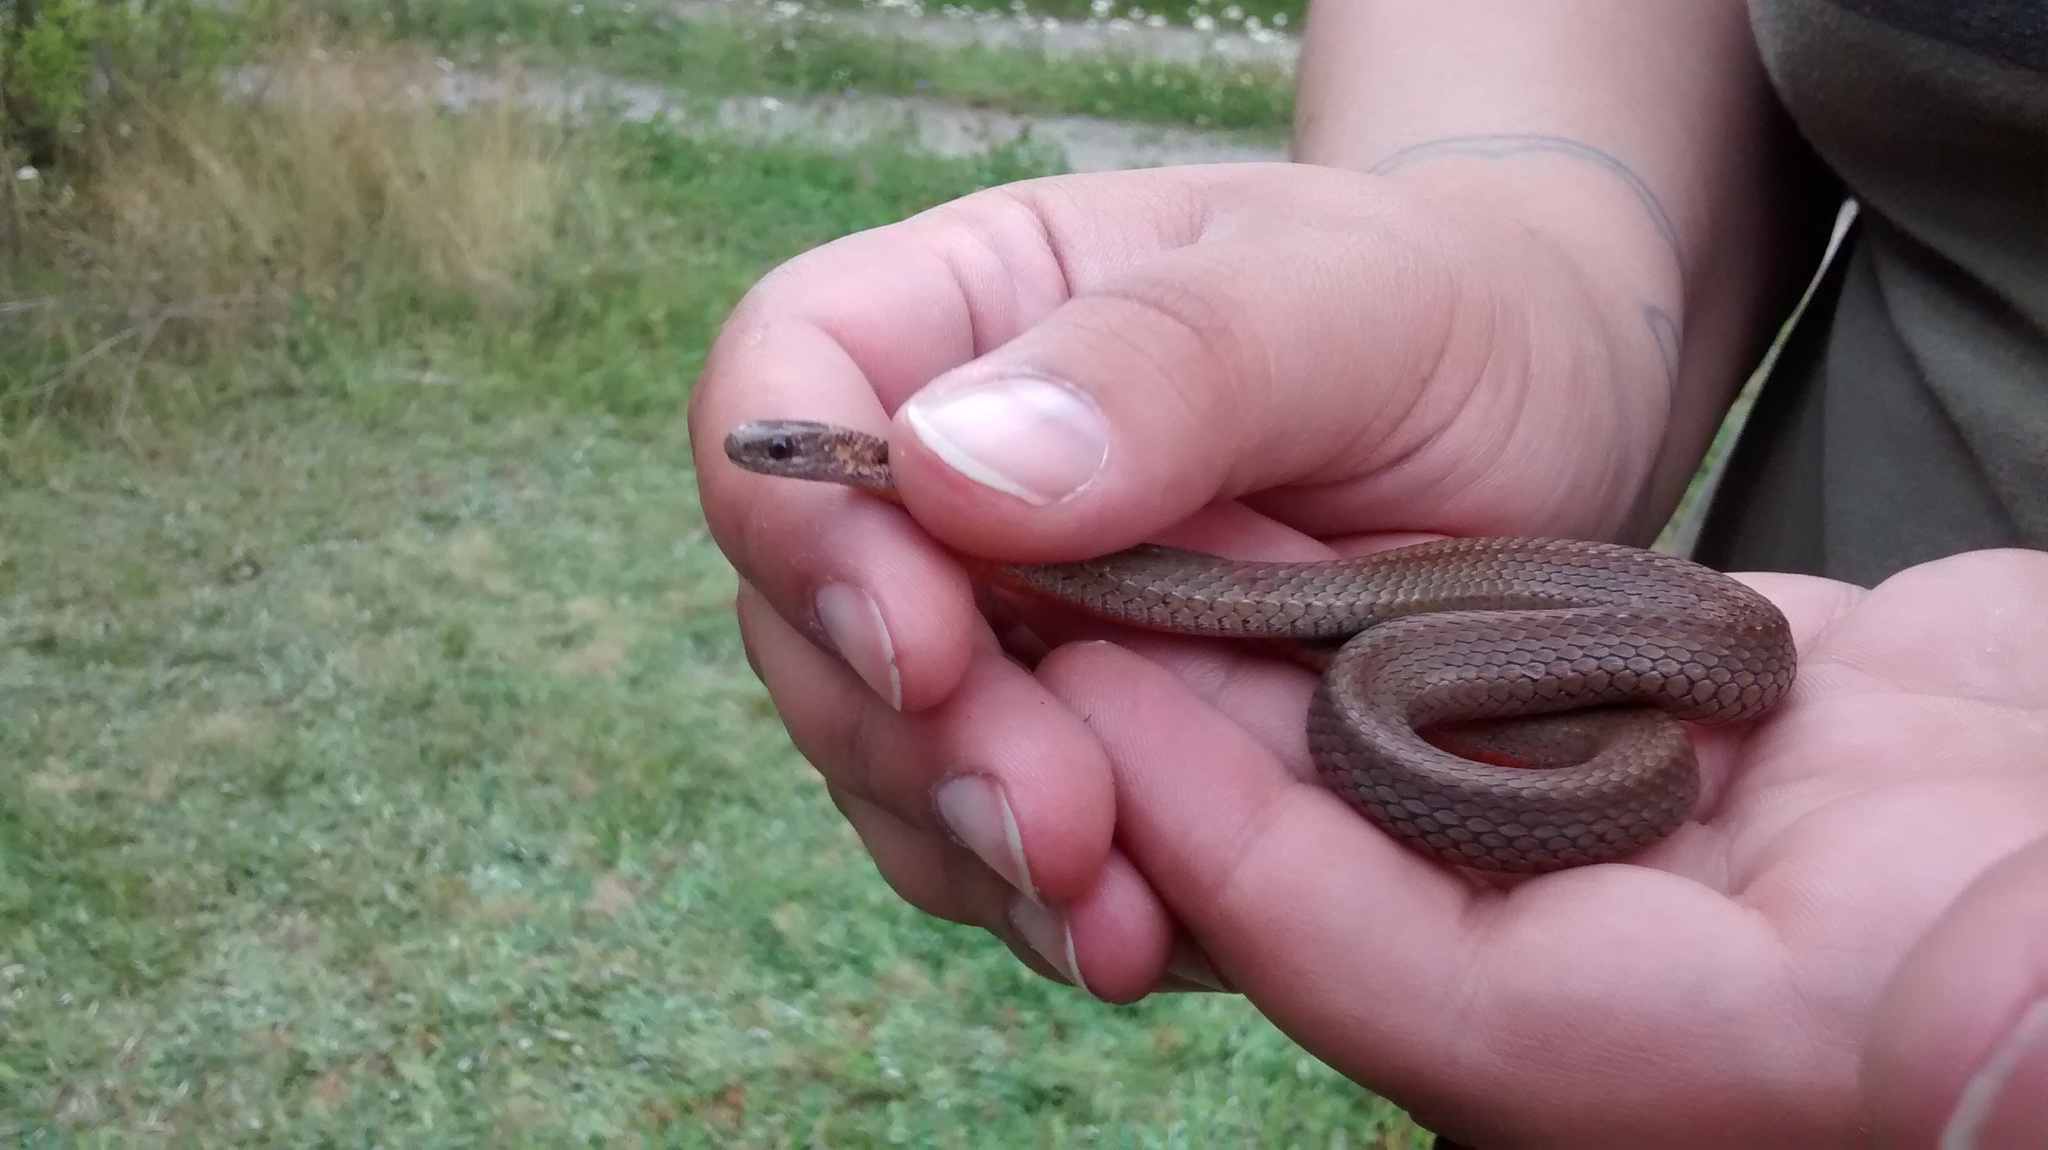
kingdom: Animalia
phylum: Chordata
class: Squamata
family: Colubridae
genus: Storeria
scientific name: Storeria occipitomaculata
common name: Redbelly snake
